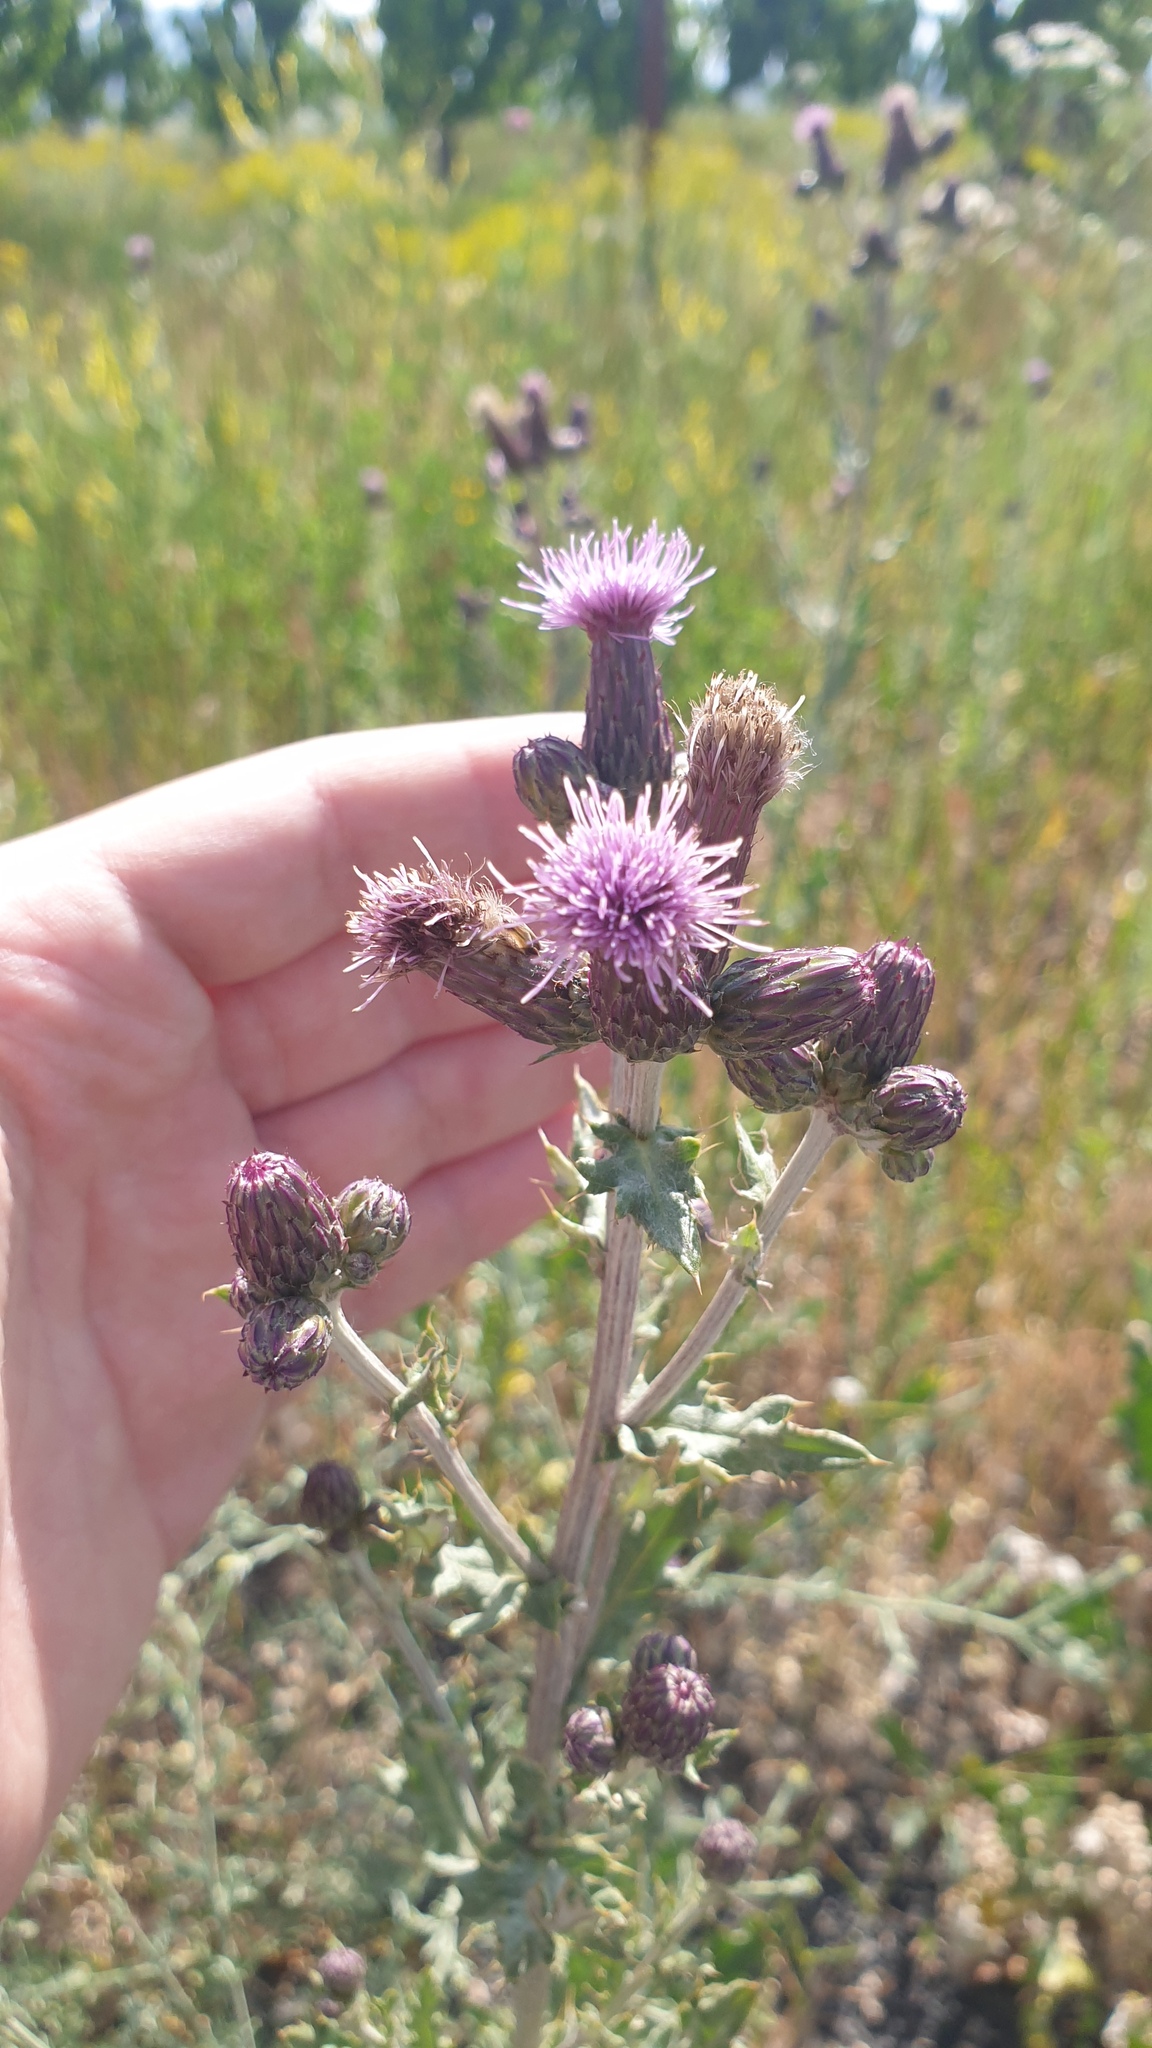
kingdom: Plantae
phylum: Tracheophyta
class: Magnoliopsida
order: Asterales
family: Asteraceae
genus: Cirsium
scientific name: Cirsium arvense
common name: Creeping thistle
